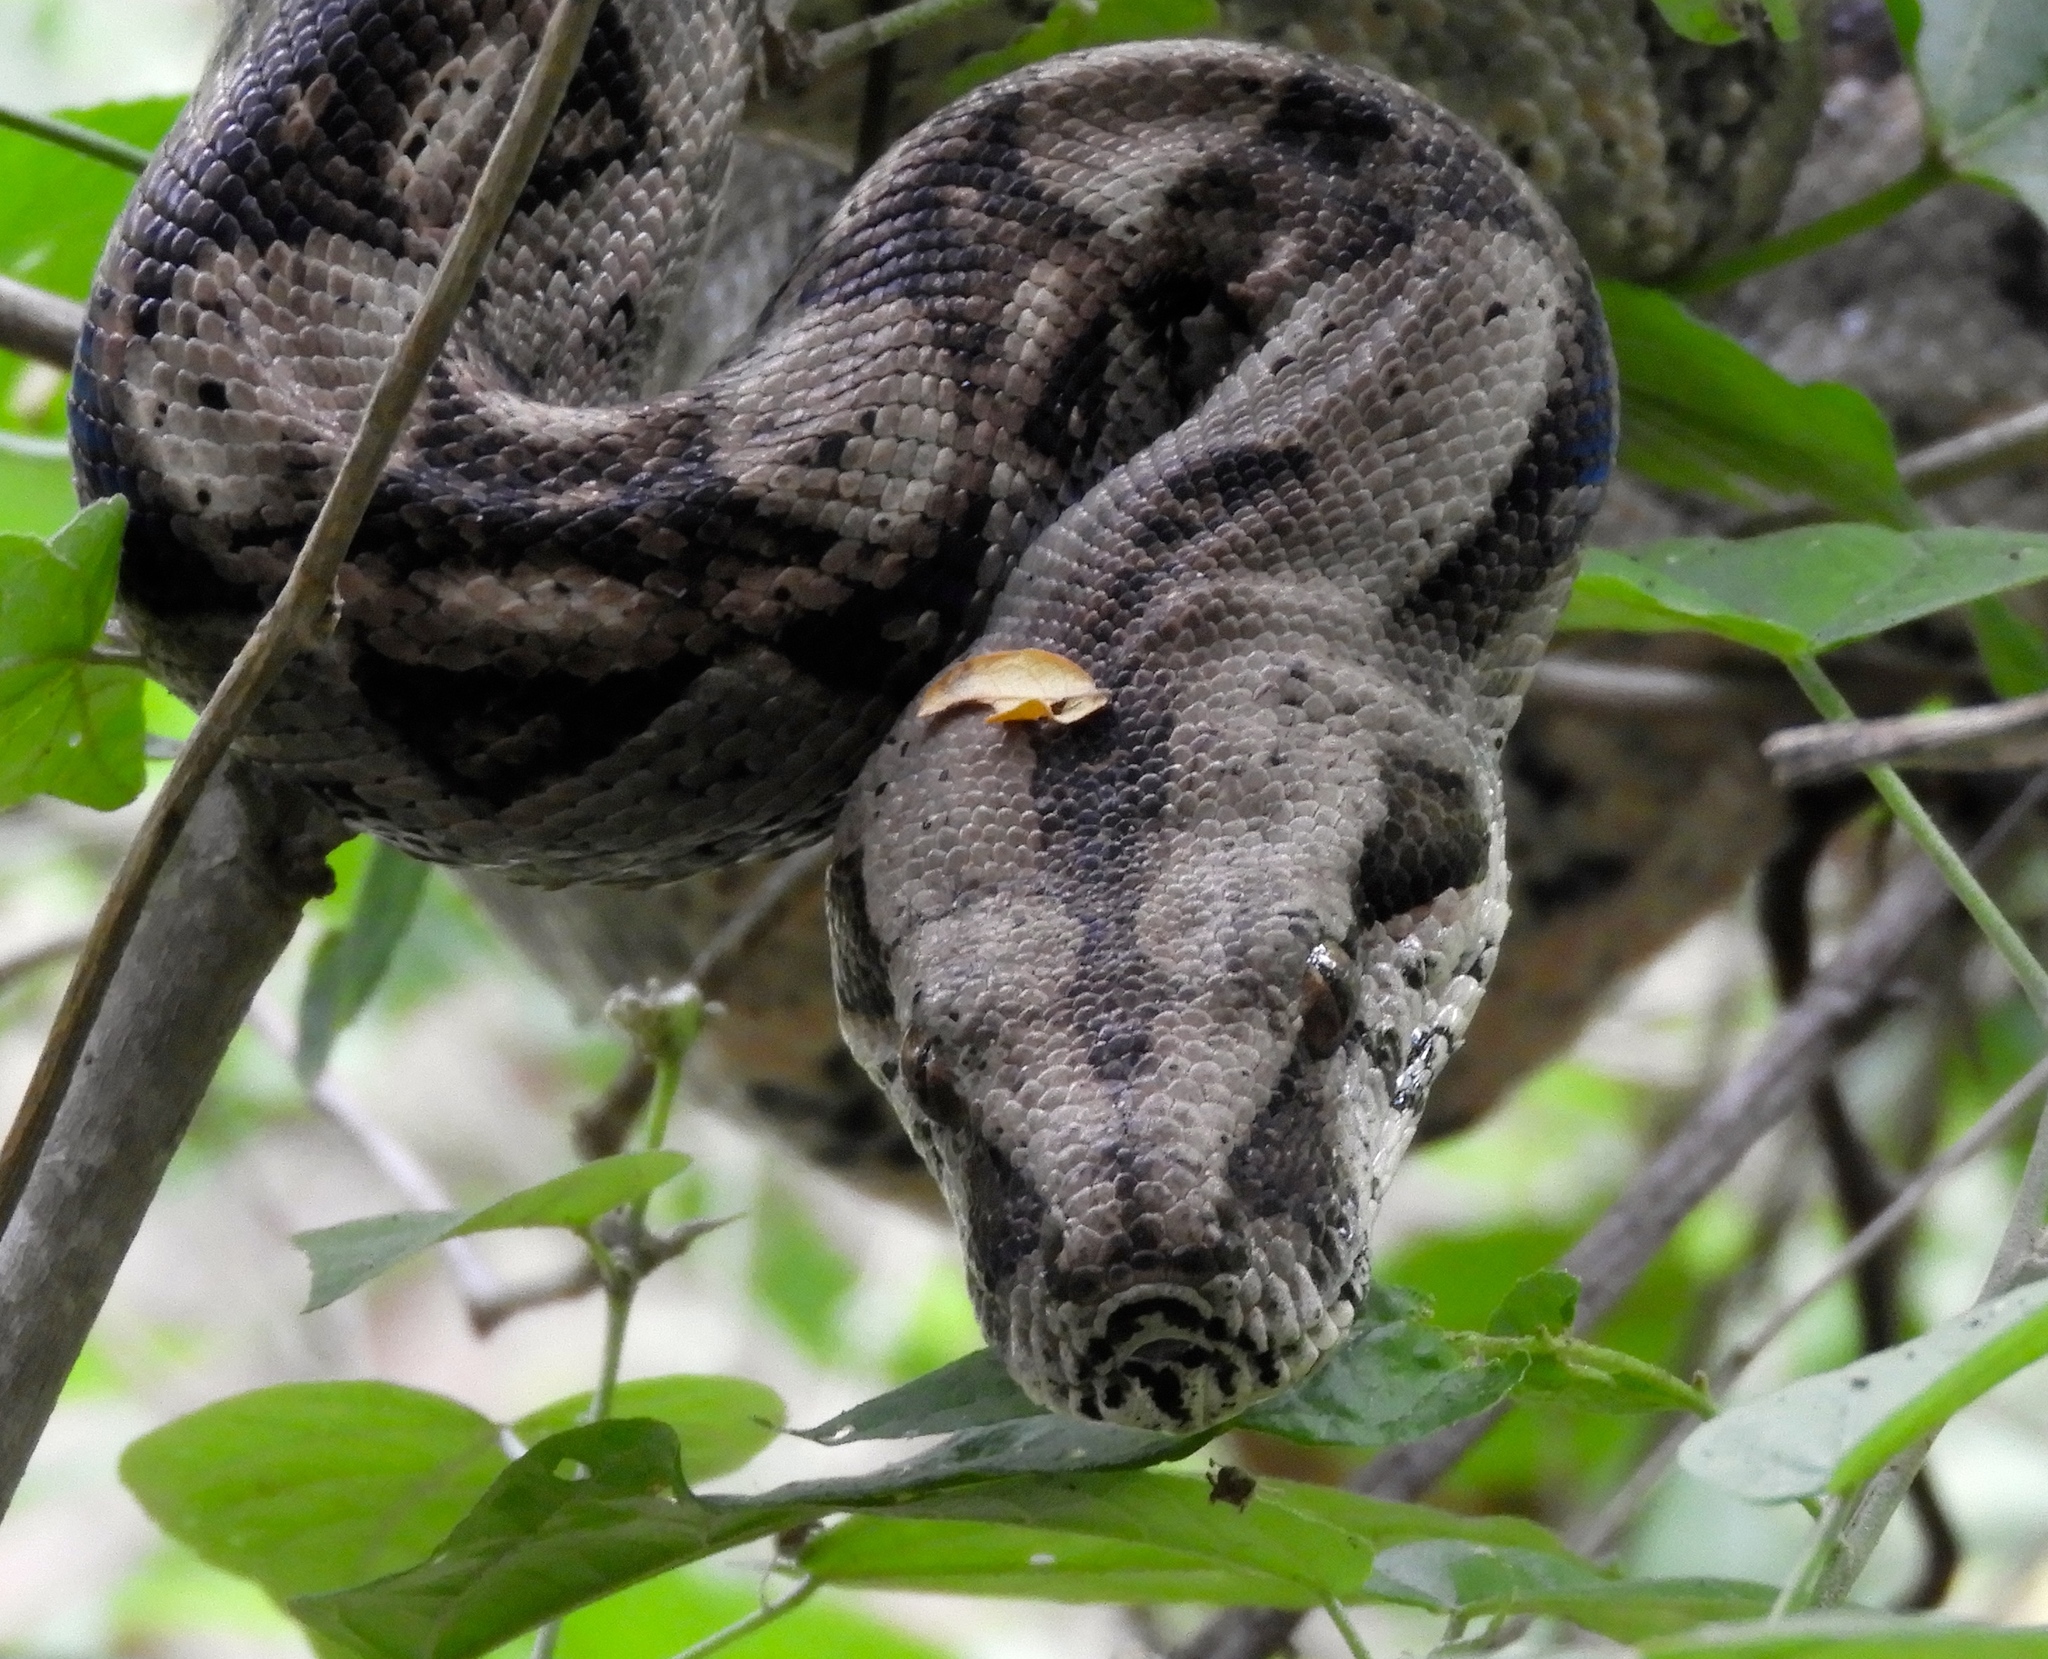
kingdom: Animalia
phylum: Chordata
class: Squamata
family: Boidae
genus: Boa
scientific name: Boa
